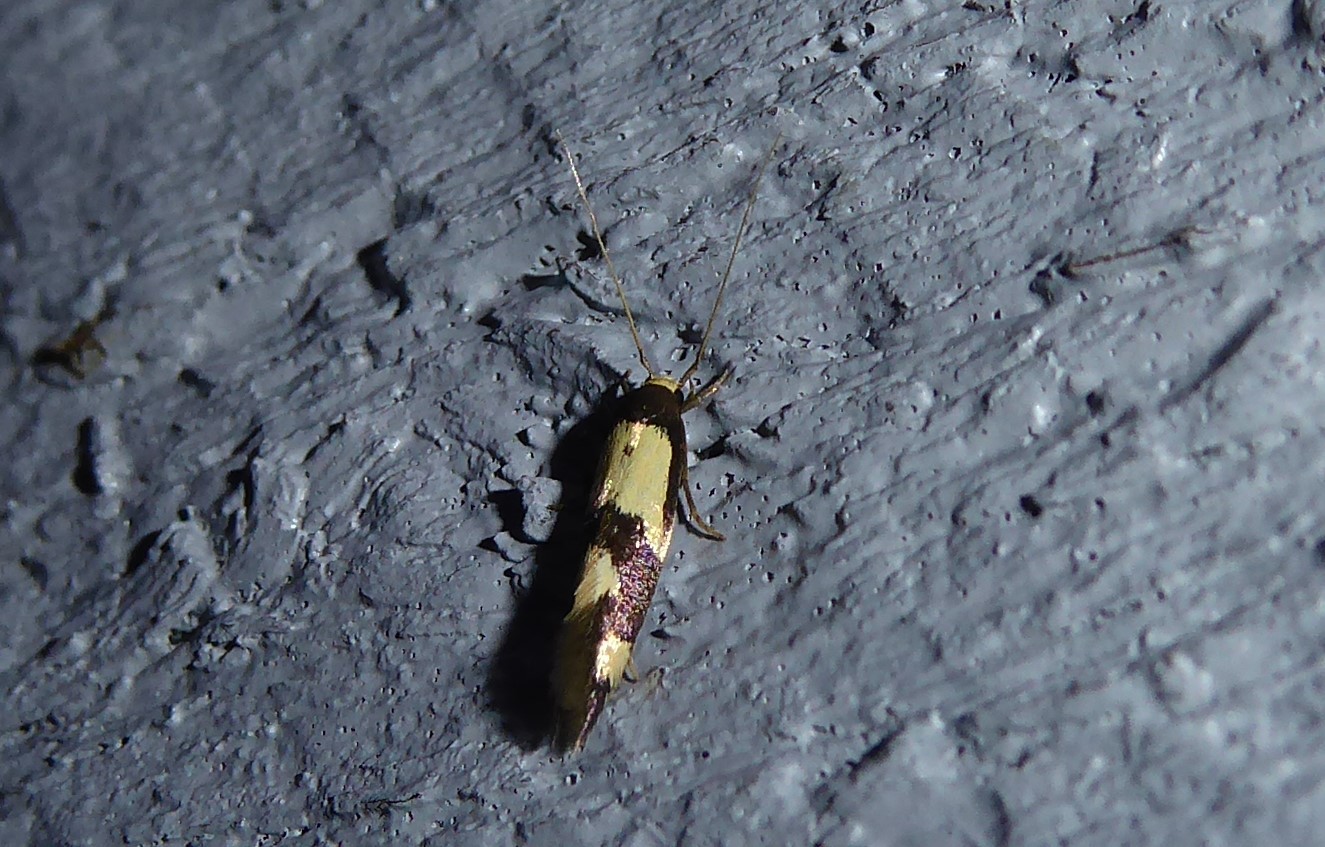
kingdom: Animalia
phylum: Arthropoda
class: Insecta
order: Lepidoptera
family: Tineidae
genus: Opogona
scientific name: Opogona comptella
